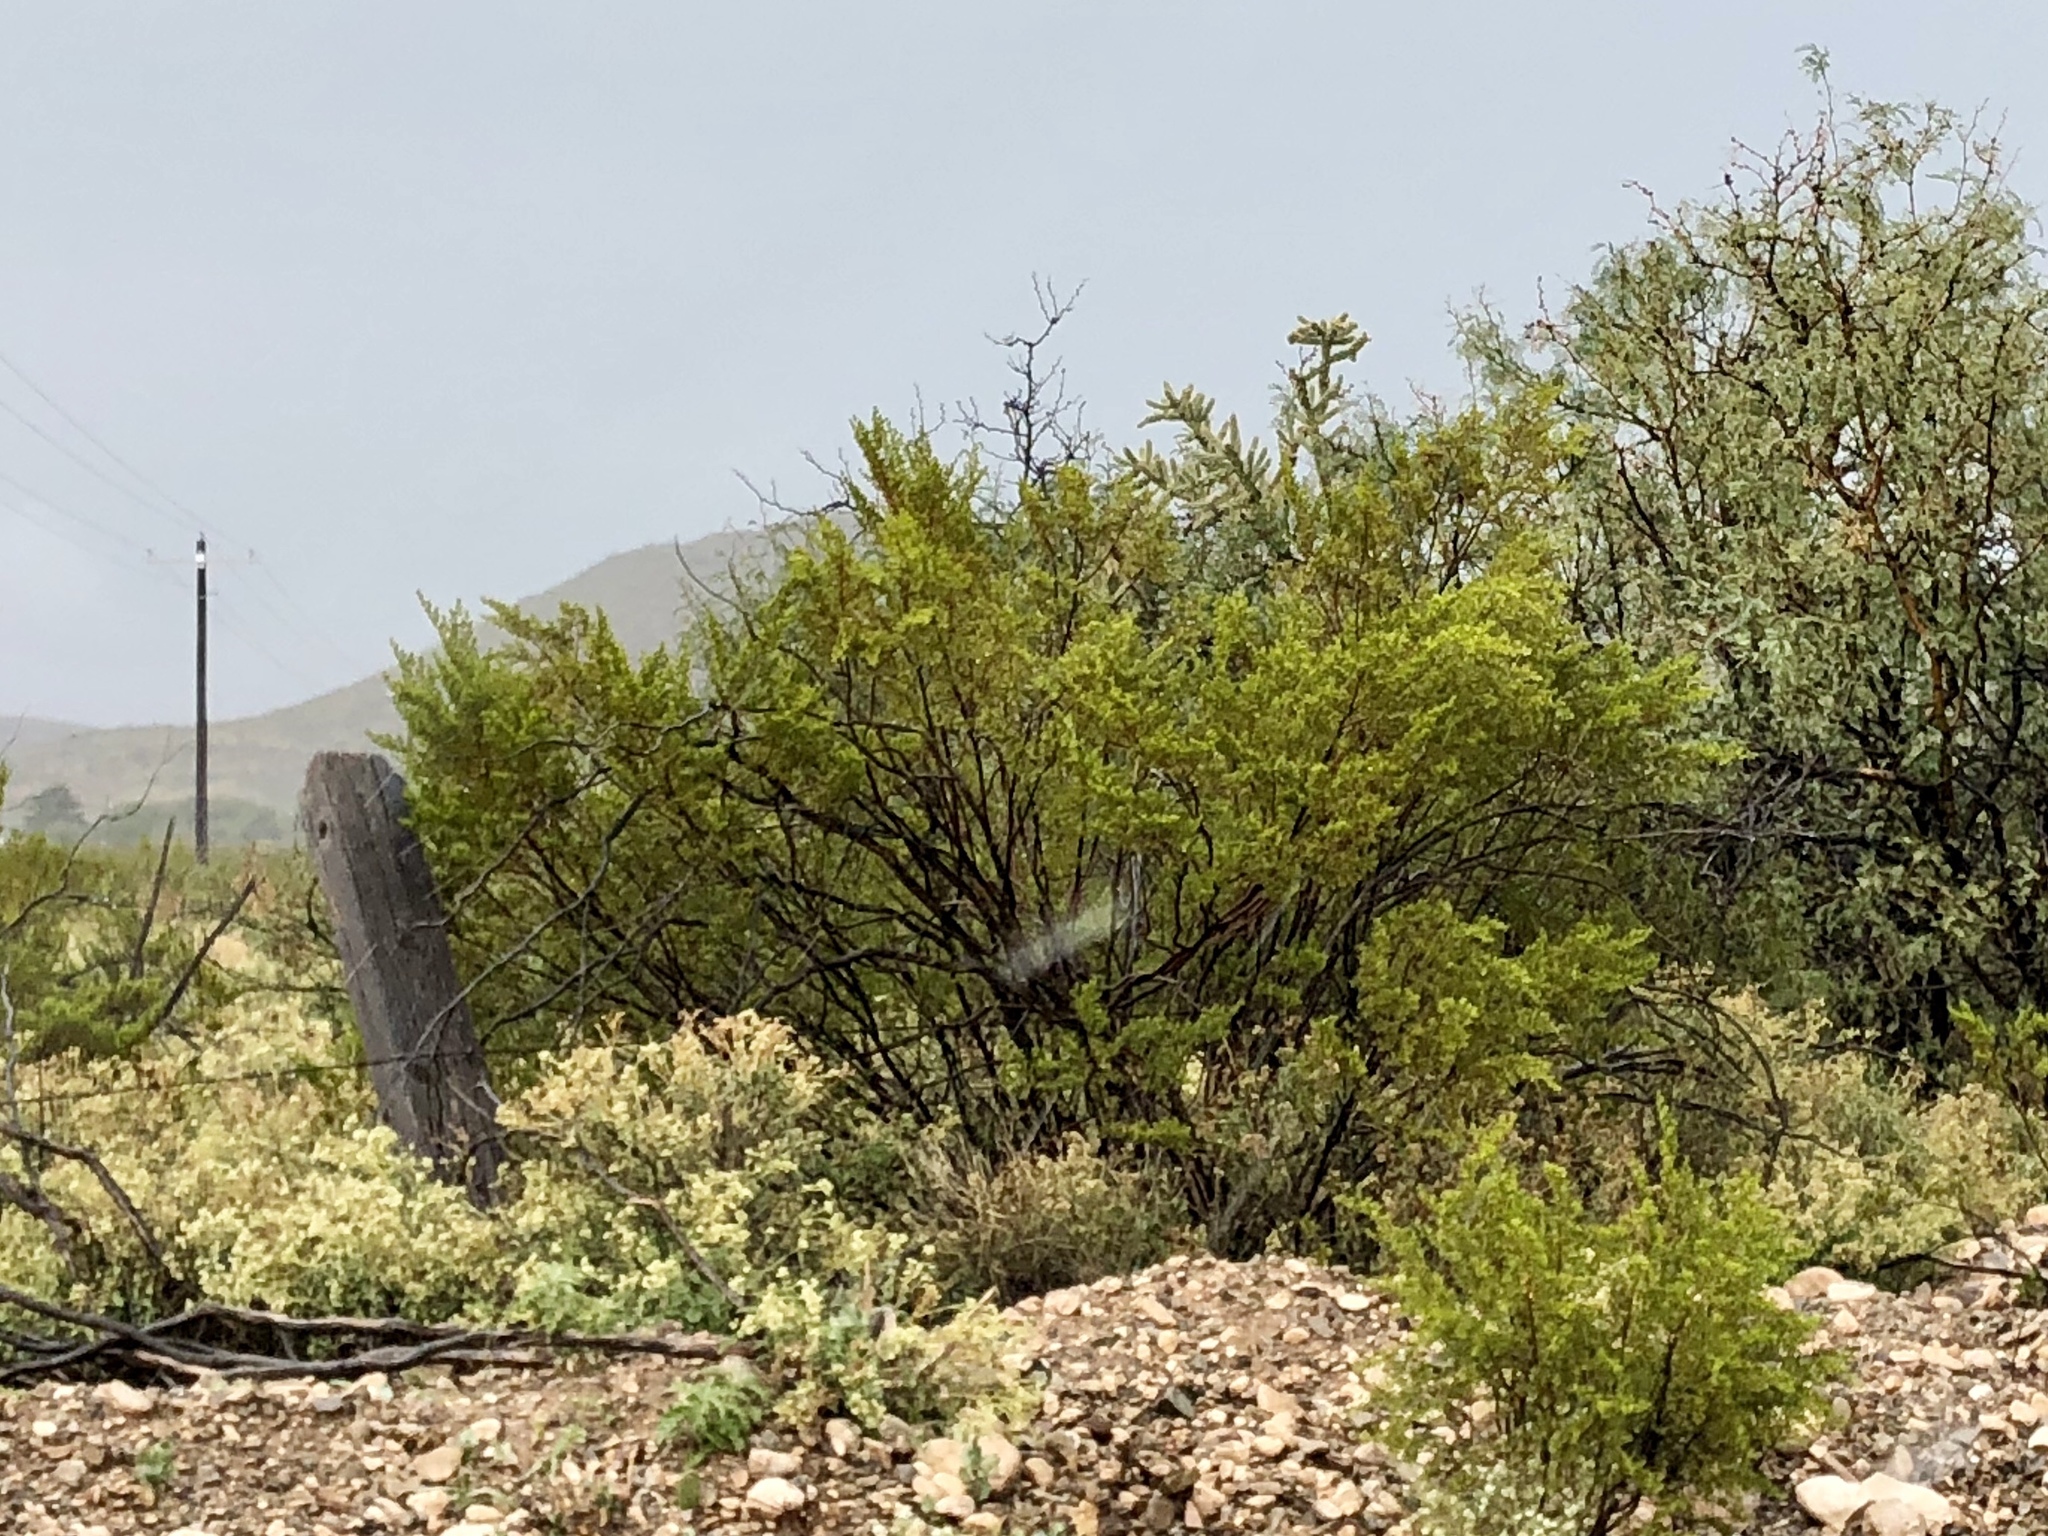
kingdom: Plantae
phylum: Tracheophyta
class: Magnoliopsida
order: Zygophyllales
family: Zygophyllaceae
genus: Larrea
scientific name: Larrea tridentata
